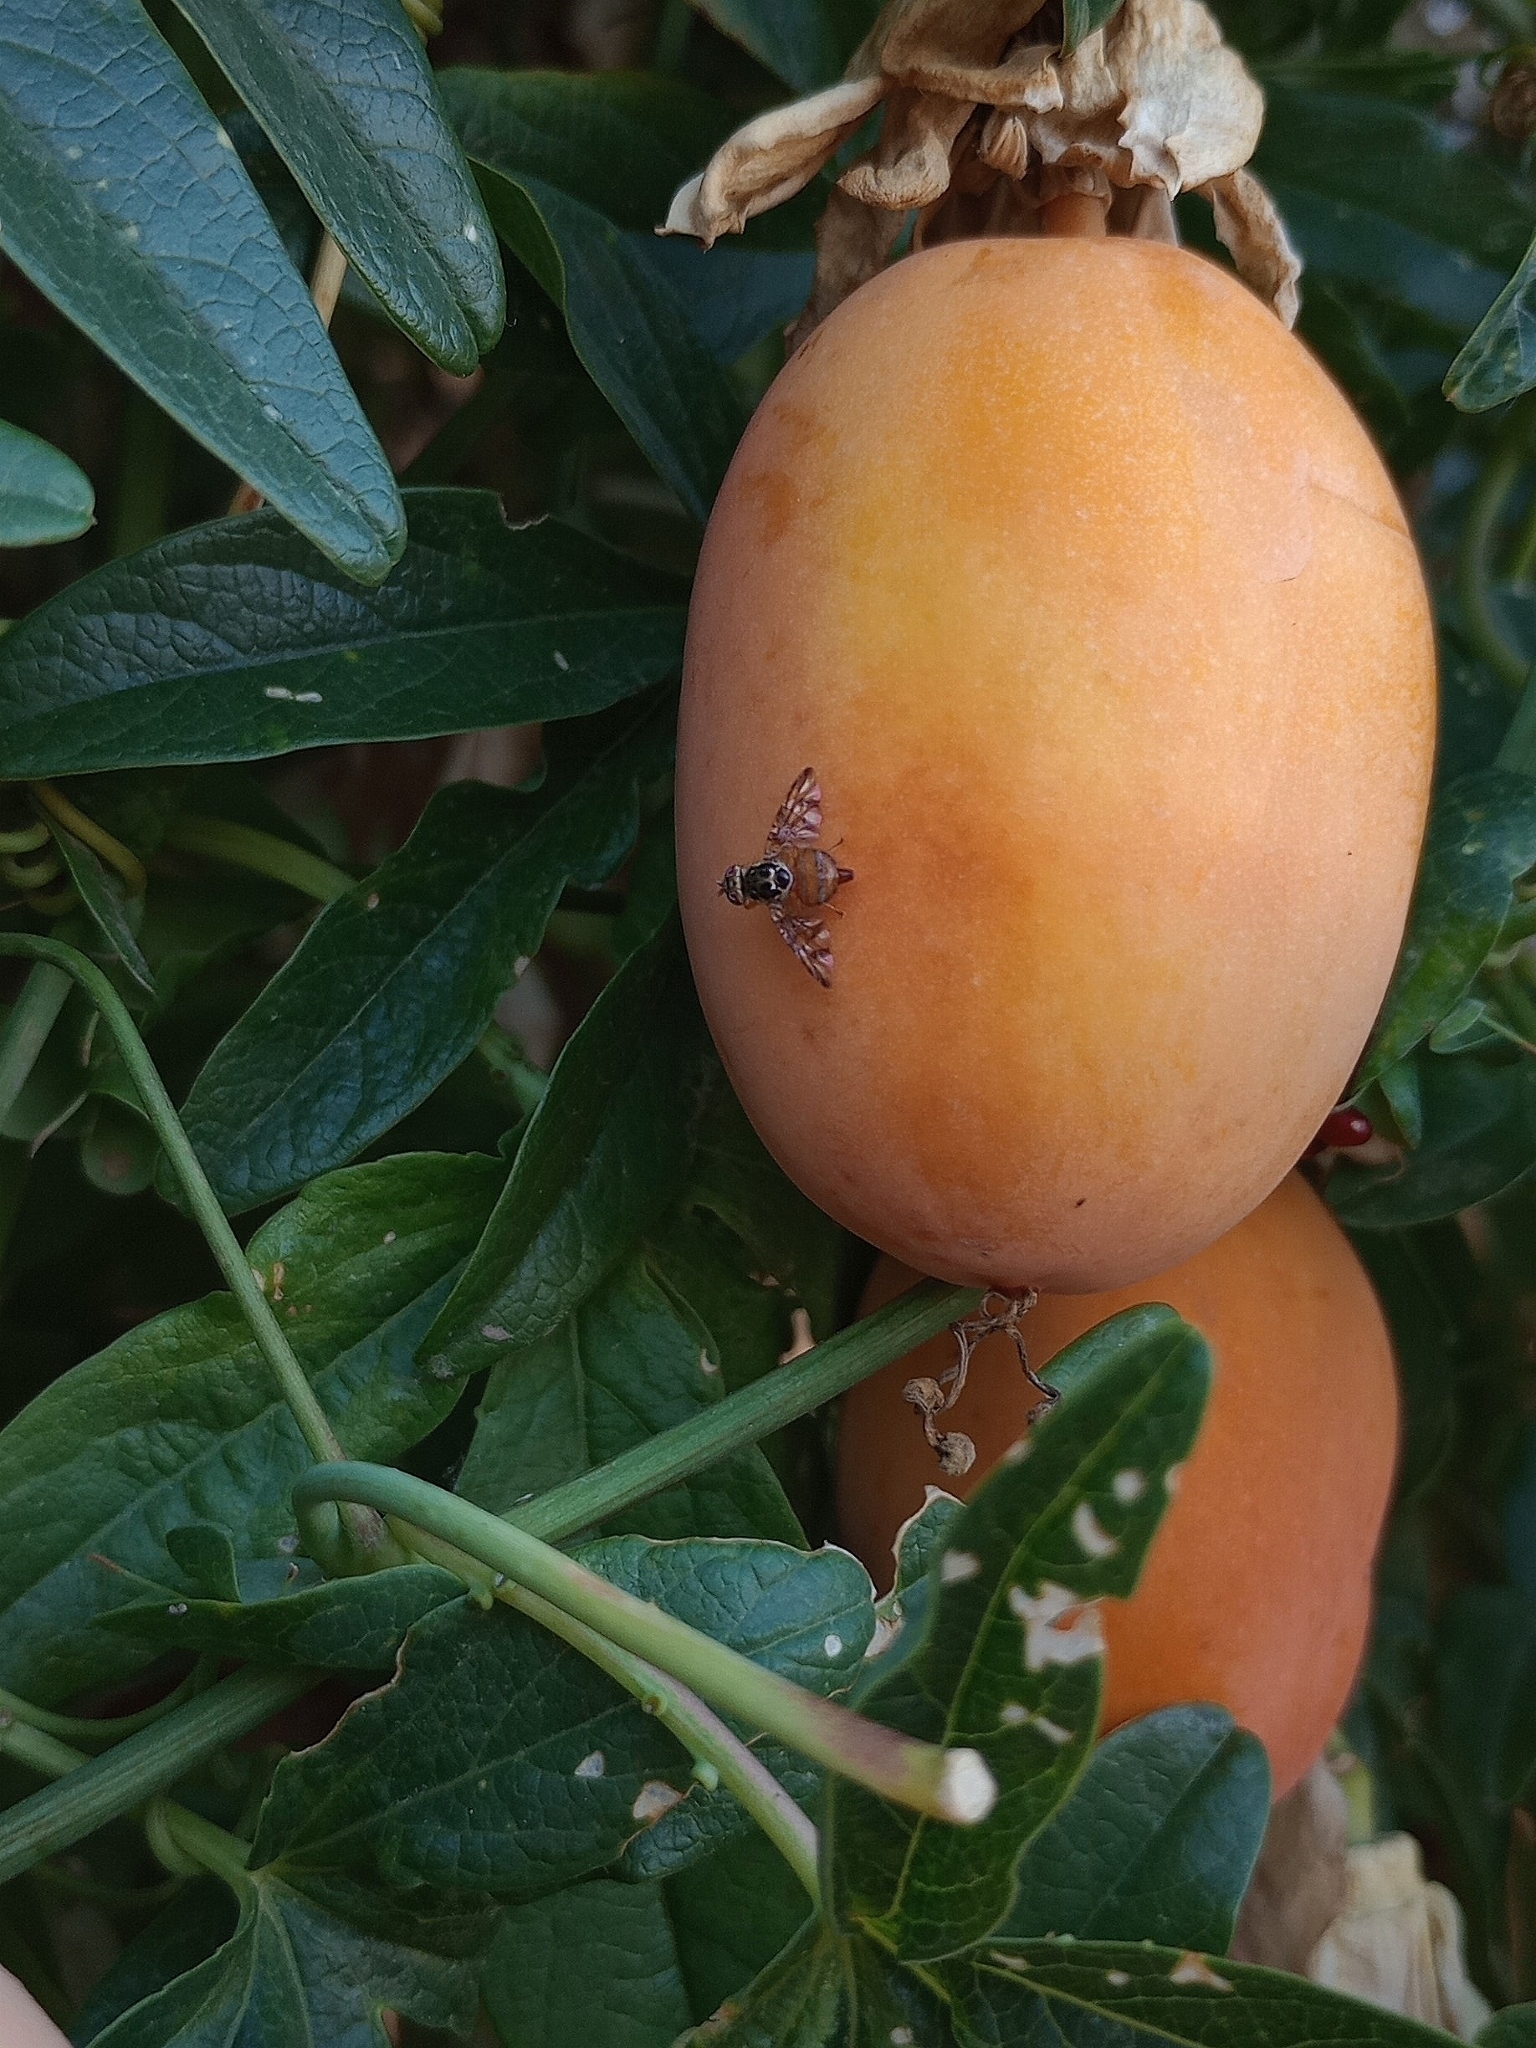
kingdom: Animalia
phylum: Arthropoda
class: Insecta
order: Diptera
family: Tephritidae
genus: Ceratitis
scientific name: Ceratitis capitata
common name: Mediterranean fruit fly
